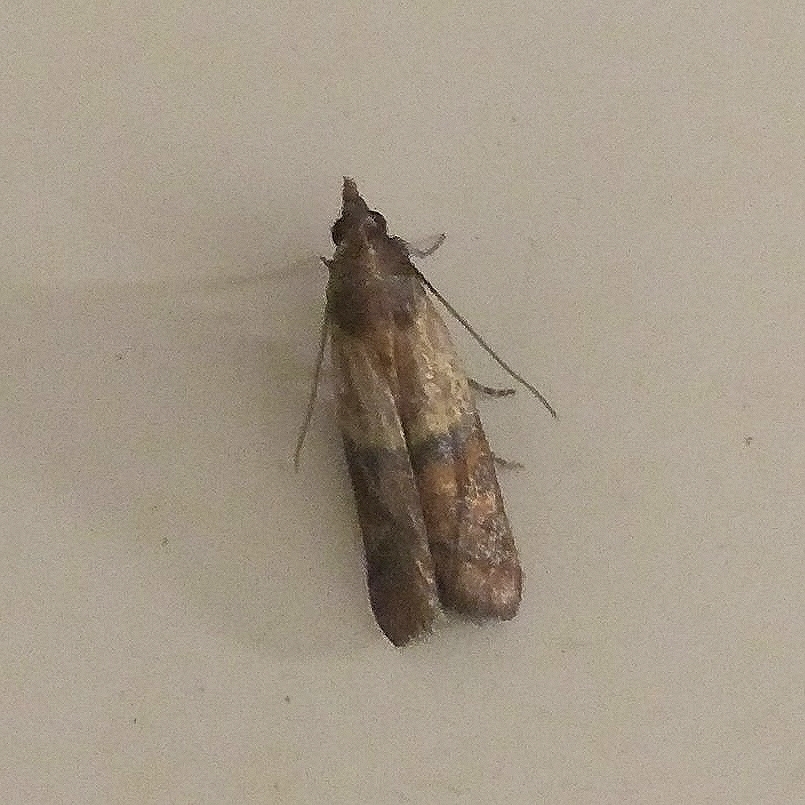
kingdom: Animalia
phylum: Arthropoda
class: Insecta
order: Lepidoptera
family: Pyralidae
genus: Plodia
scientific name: Plodia interpunctella
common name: Indian meal moth
